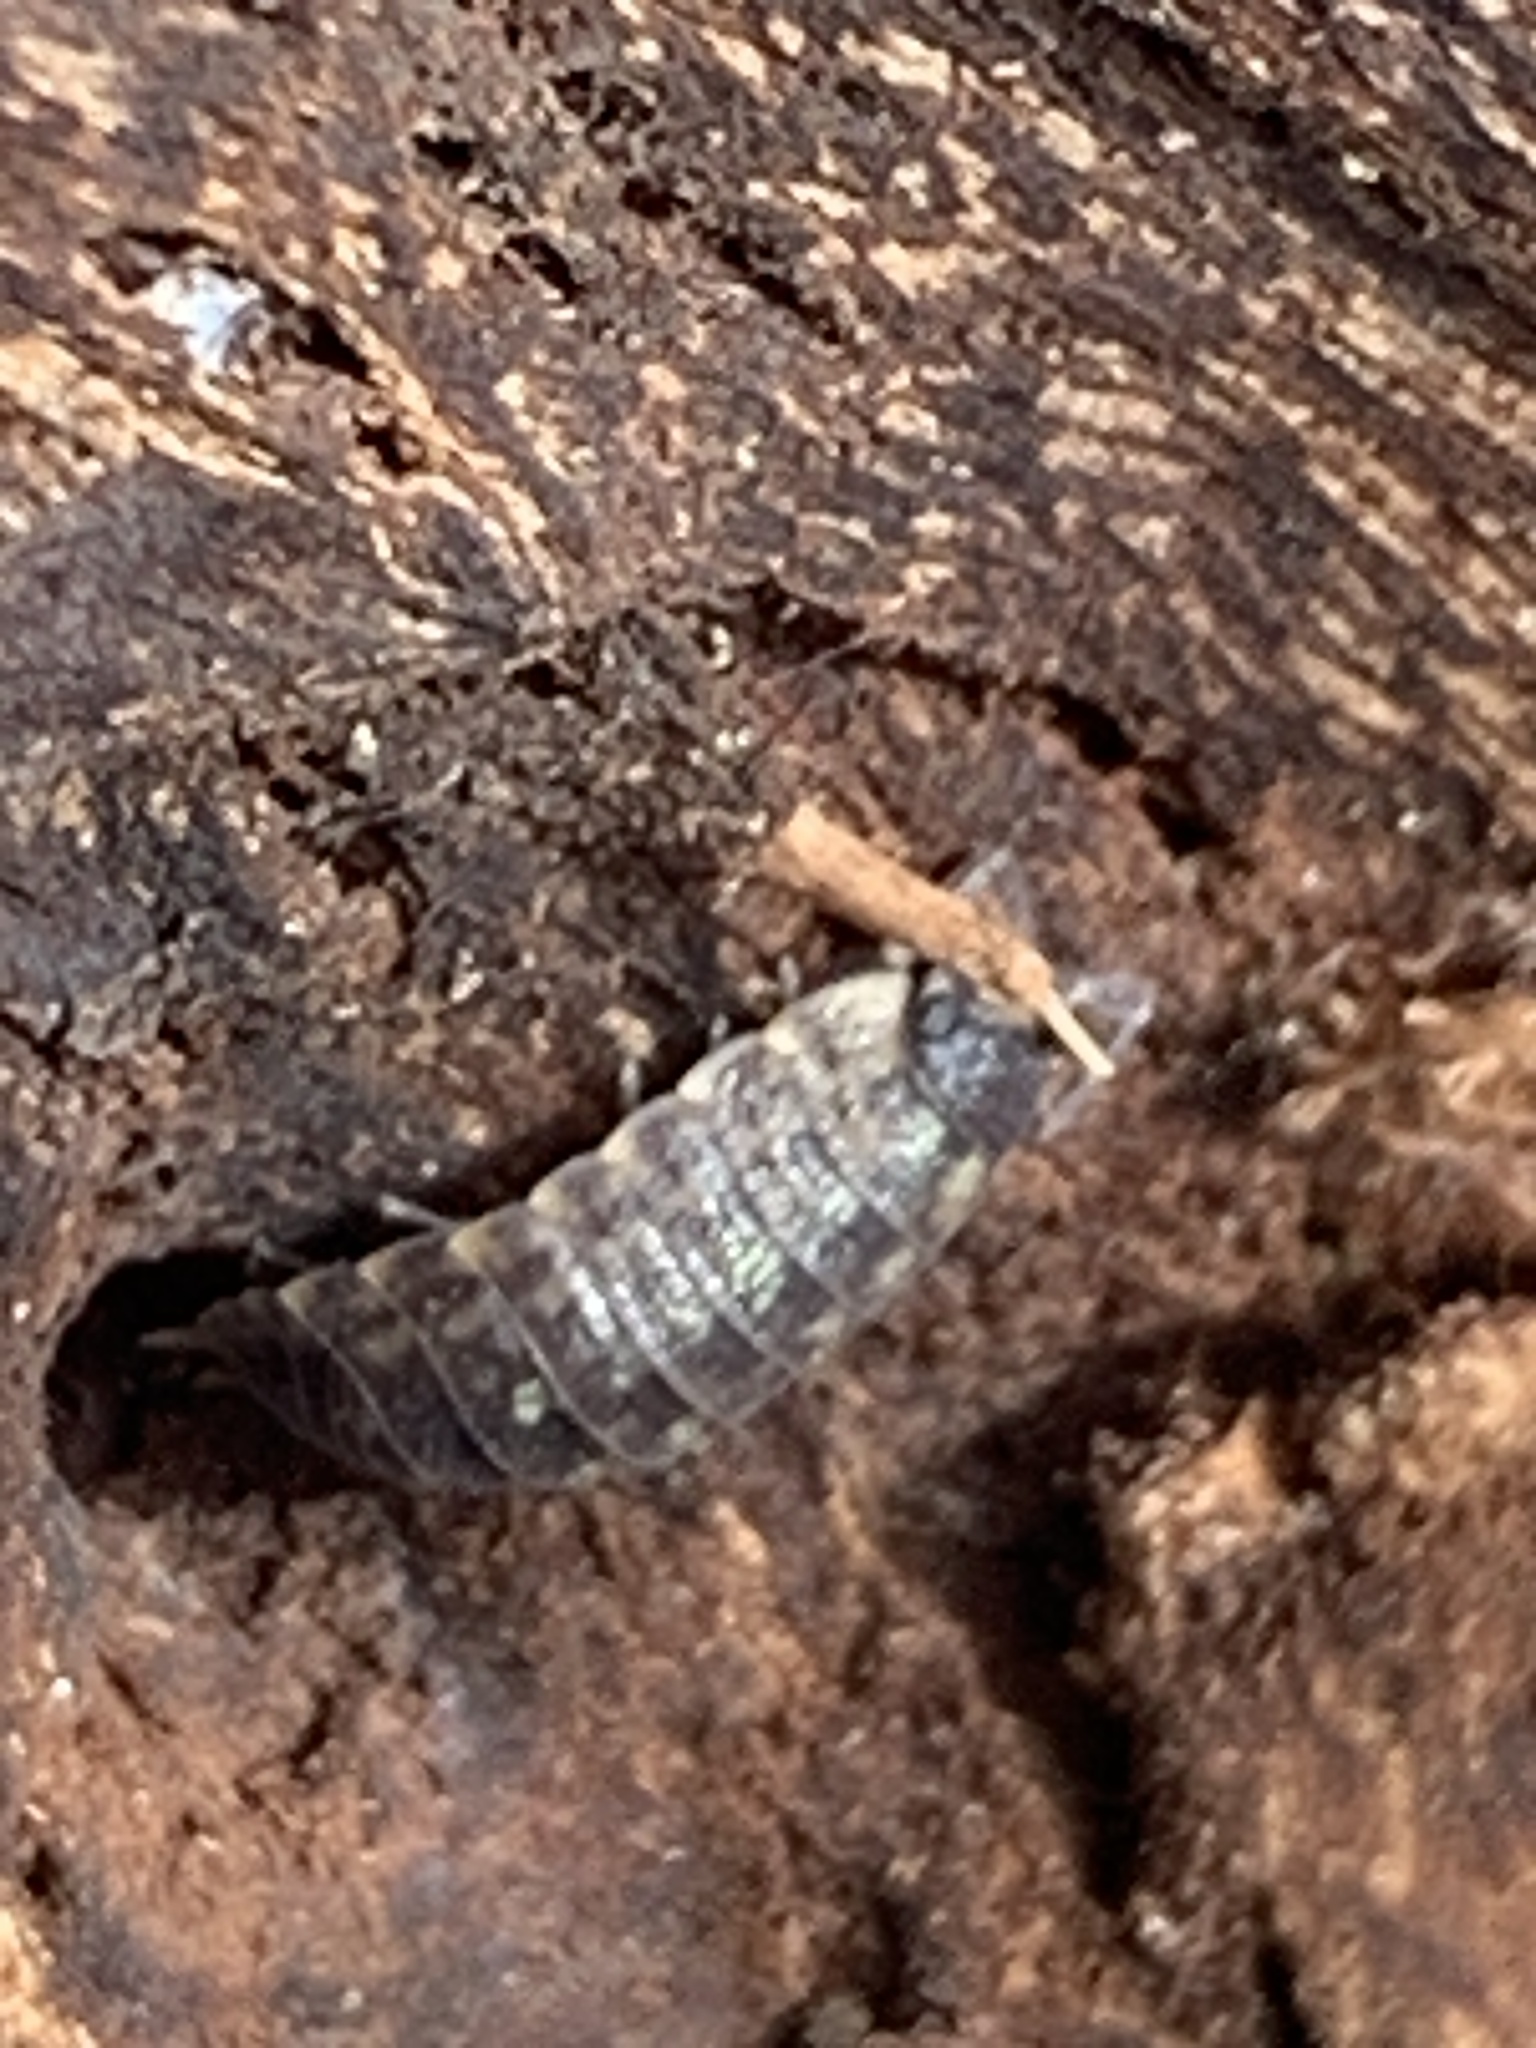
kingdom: Animalia
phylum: Arthropoda
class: Malacostraca
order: Isopoda
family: Porcellionidae
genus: Porcellio
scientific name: Porcellio spinicornis
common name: Painted woodlouse
